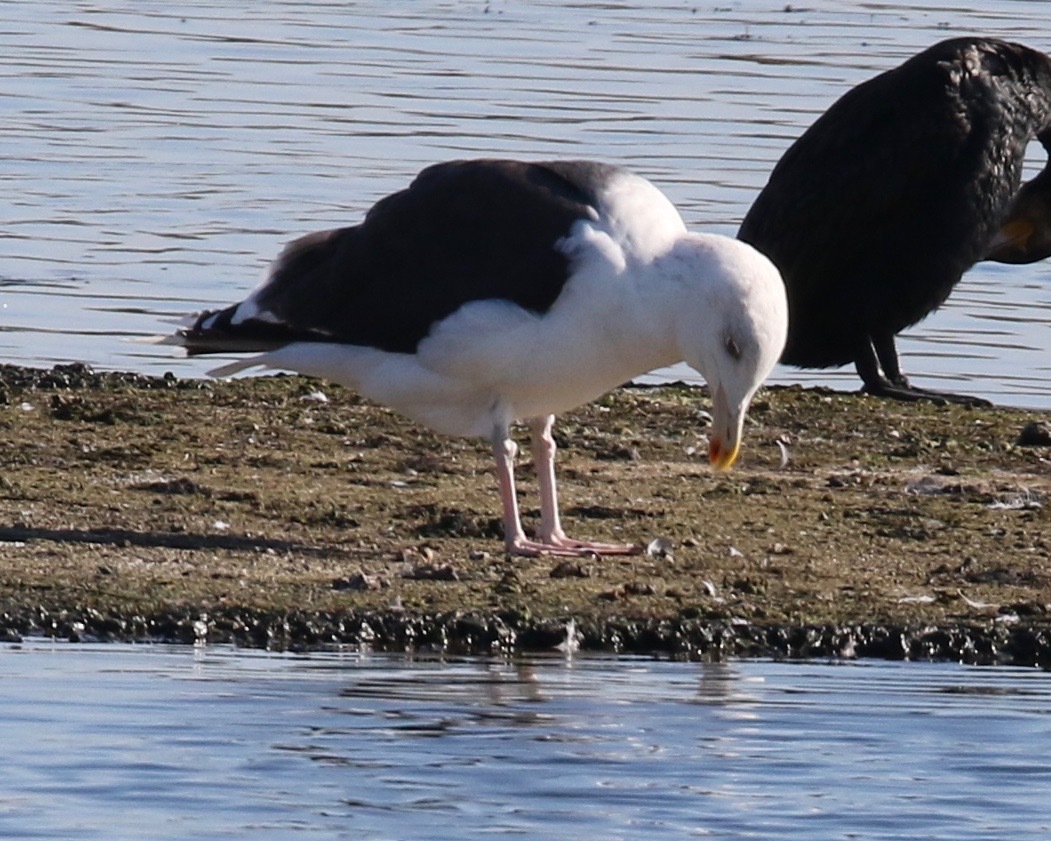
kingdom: Animalia
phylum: Chordata
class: Aves
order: Charadriiformes
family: Laridae
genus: Larus
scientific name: Larus marinus
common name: Great black-backed gull
